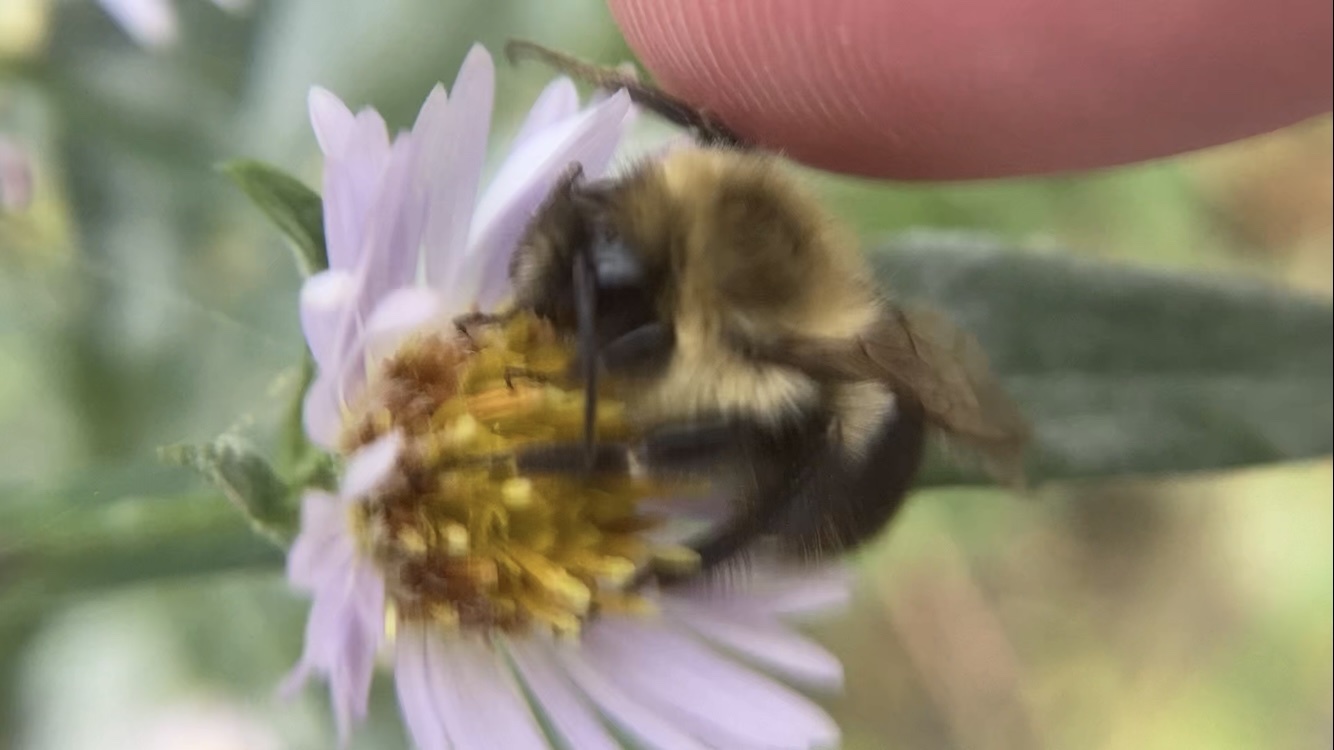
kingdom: Animalia
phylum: Arthropoda
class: Insecta
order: Hymenoptera
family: Apidae
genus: Bombus
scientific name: Bombus impatiens
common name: Common eastern bumble bee
